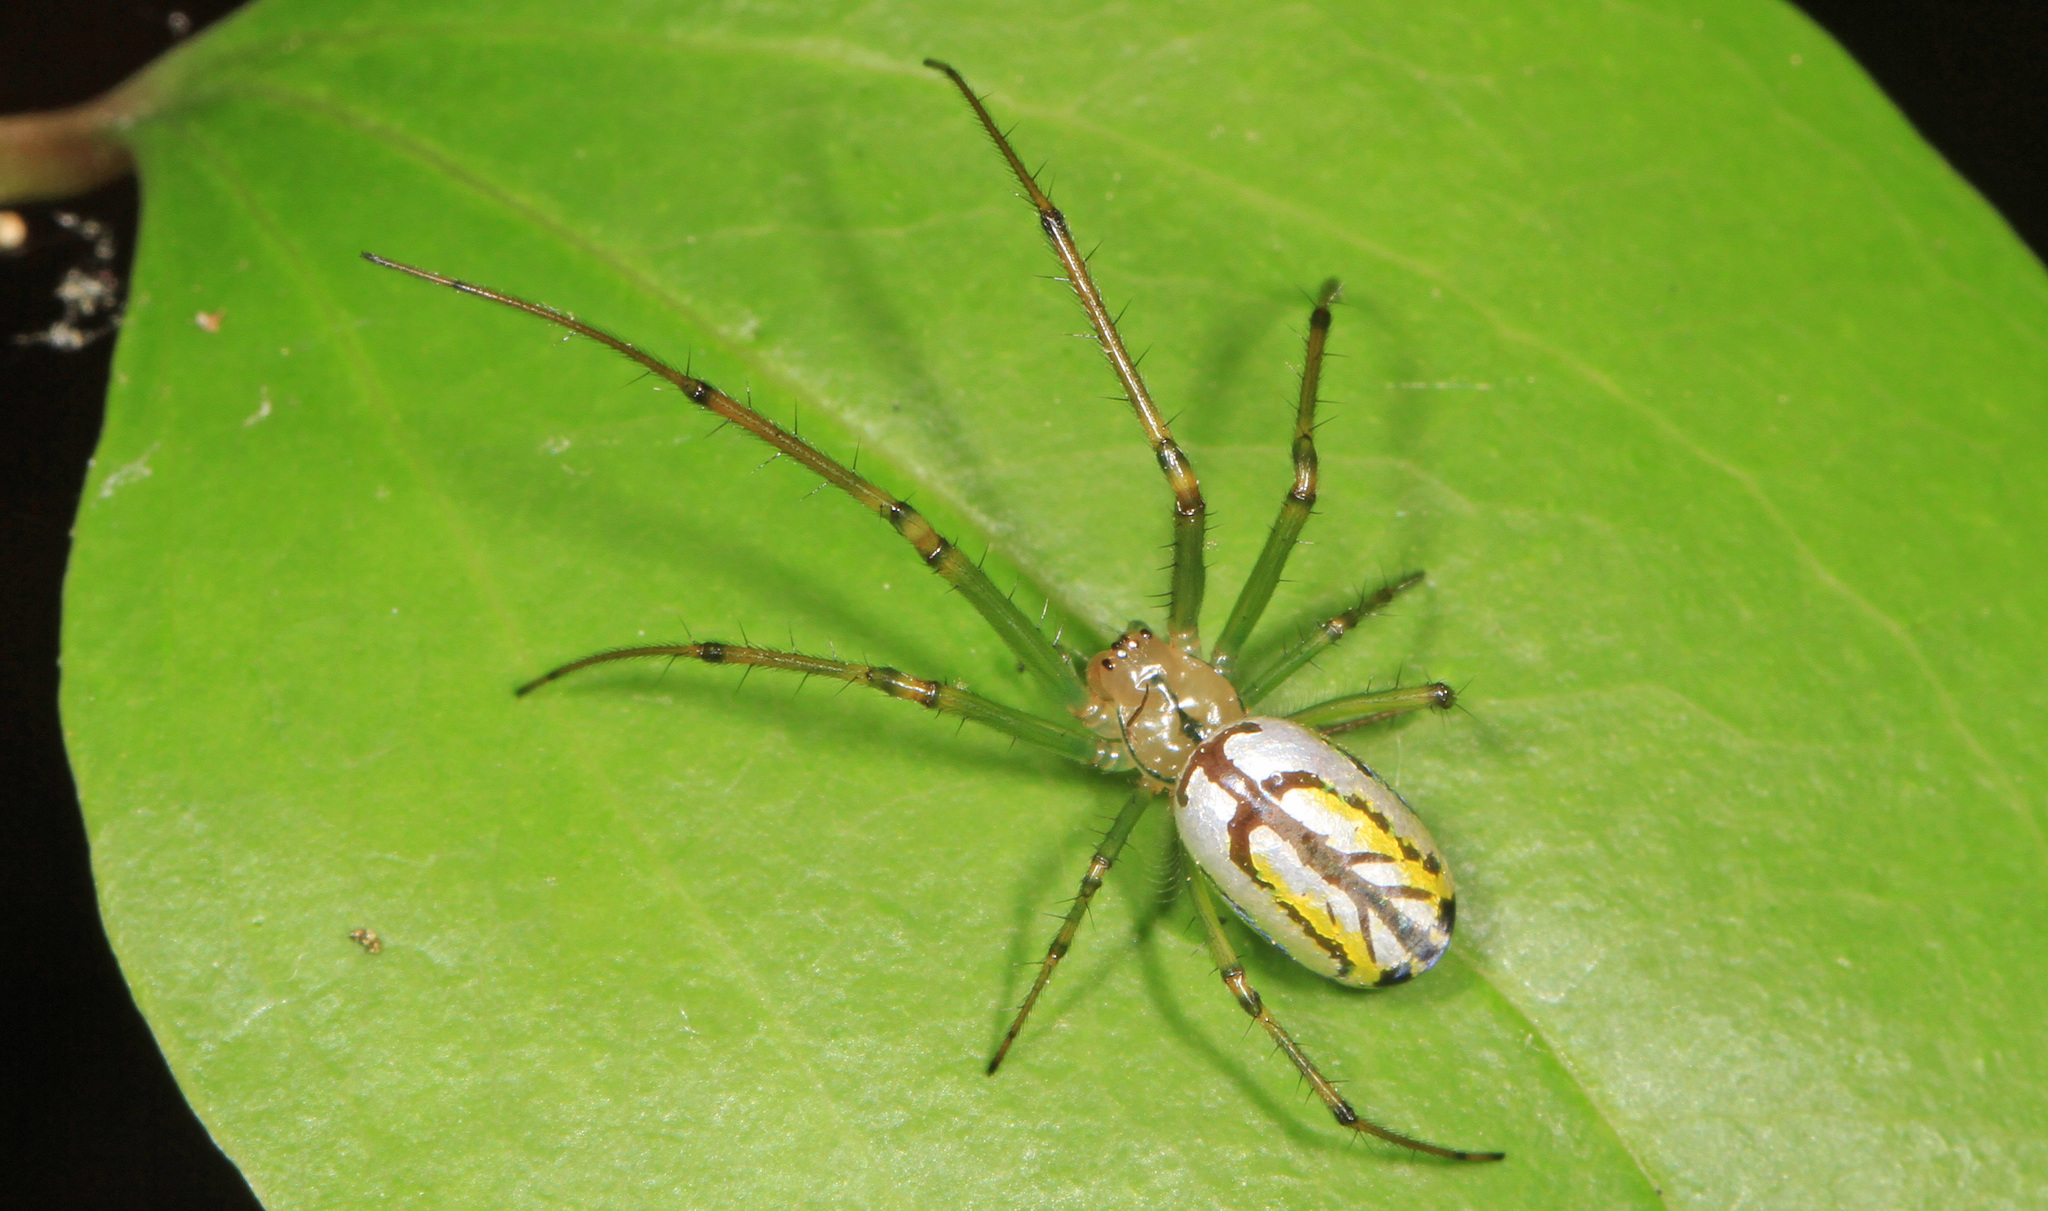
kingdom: Animalia
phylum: Arthropoda
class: Arachnida
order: Araneae
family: Tetragnathidae
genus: Leucauge
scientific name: Leucauge venusta
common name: Longjawed orb weavers
